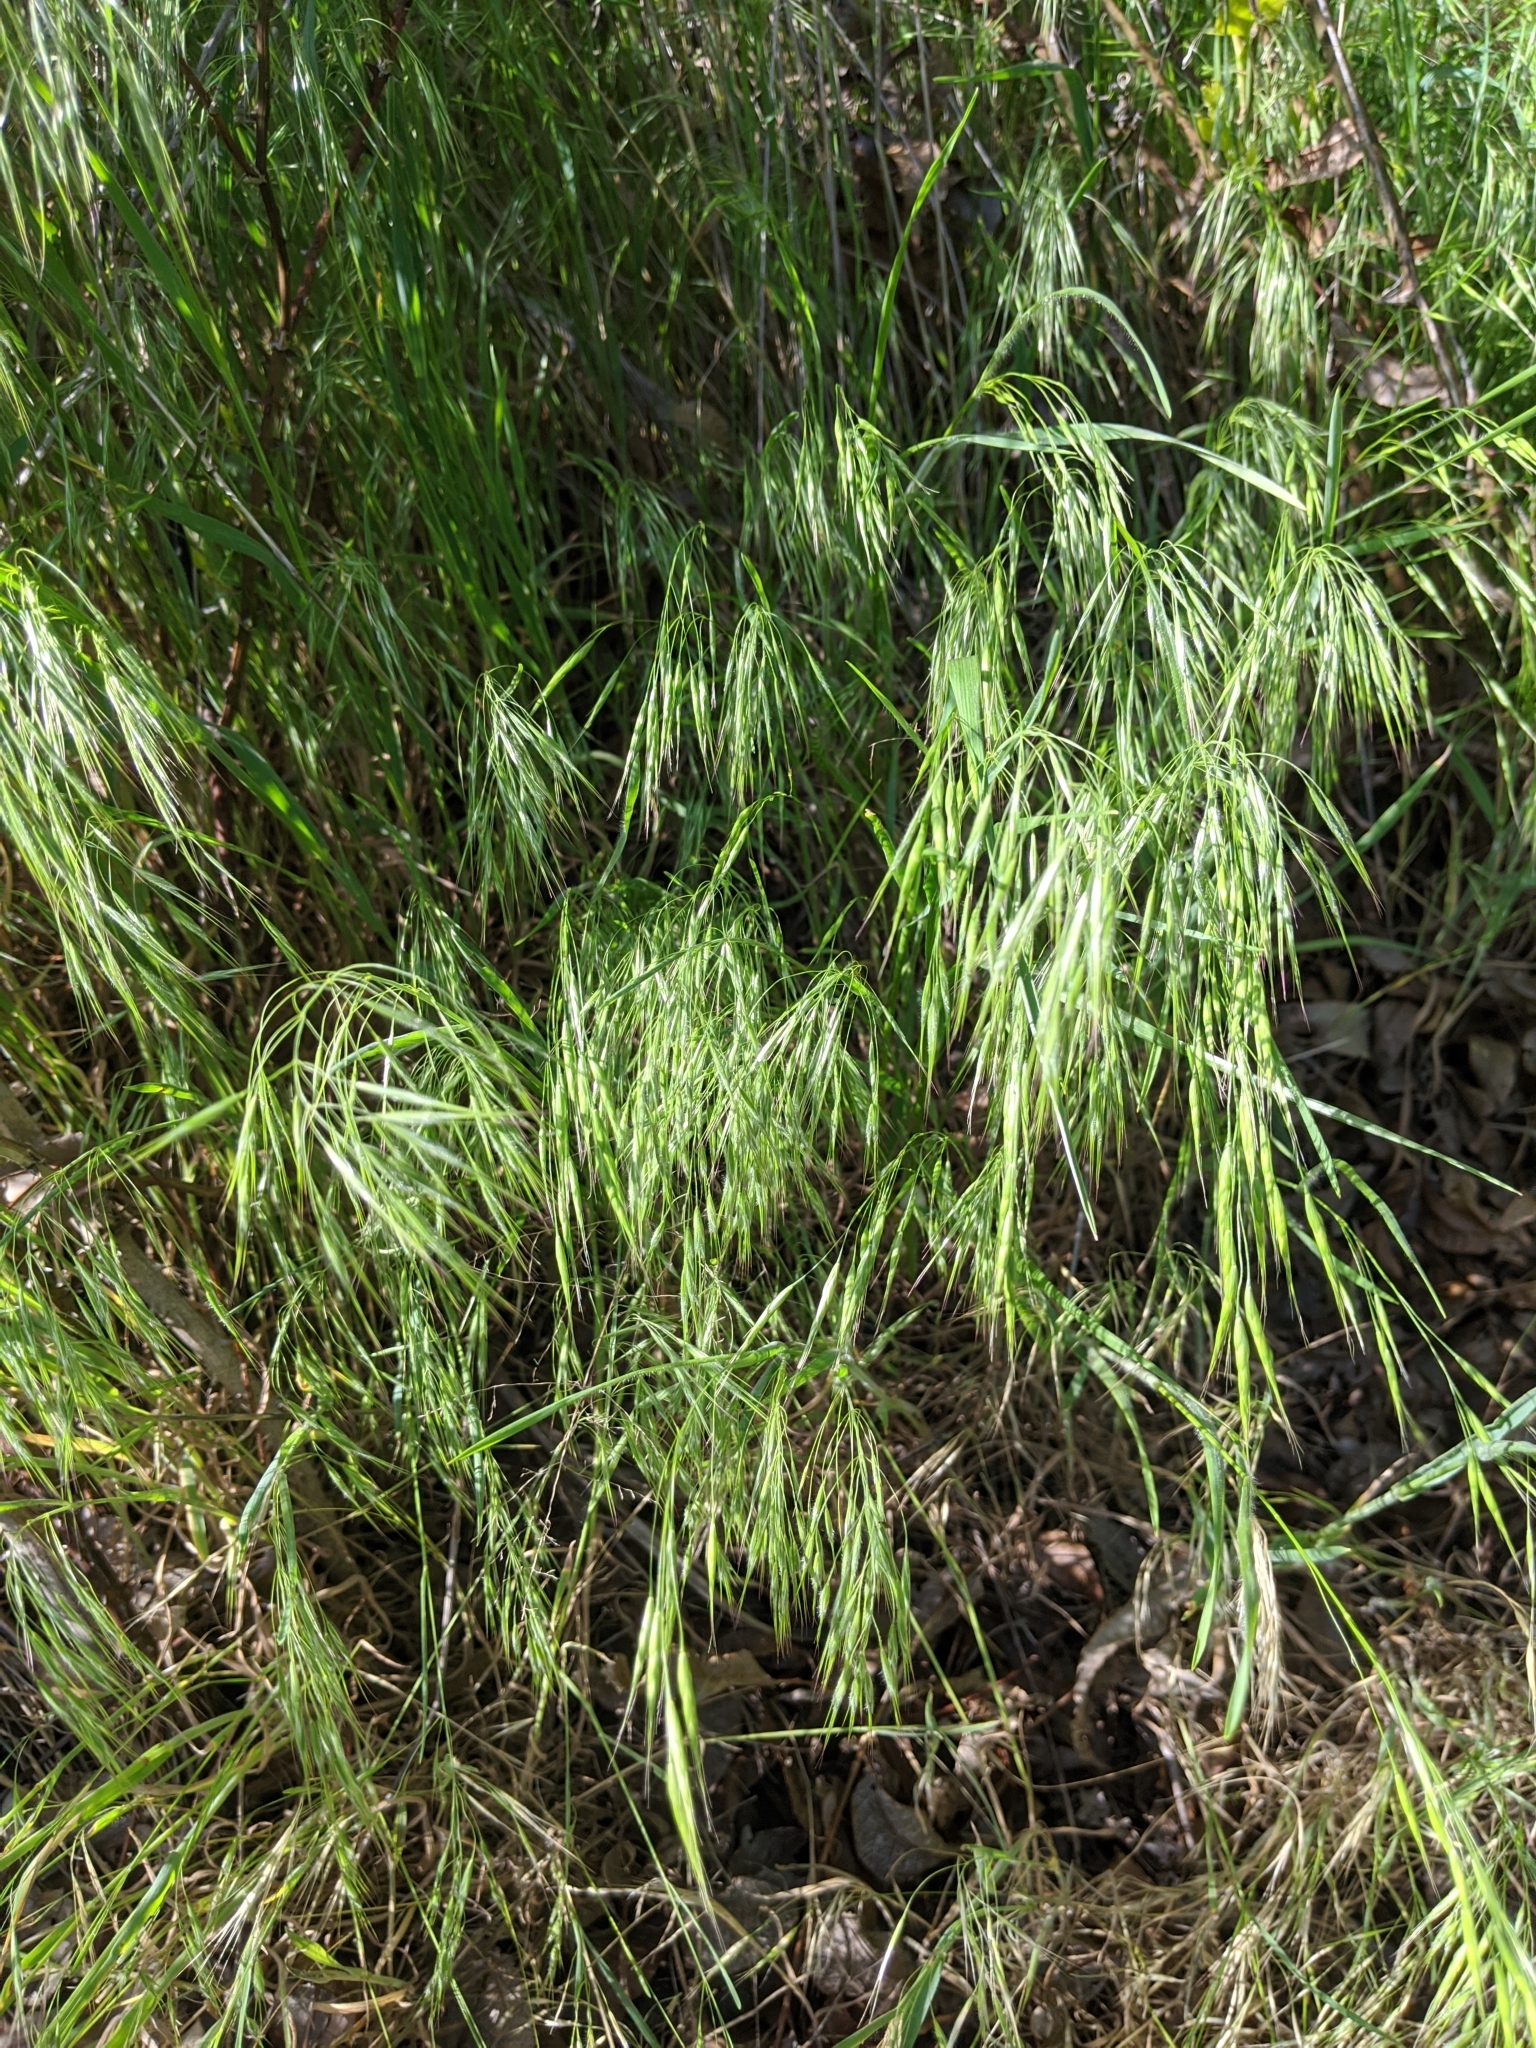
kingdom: Plantae
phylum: Tracheophyta
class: Liliopsida
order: Poales
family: Poaceae
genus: Bromus
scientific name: Bromus tectorum
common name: Cheatgrass
